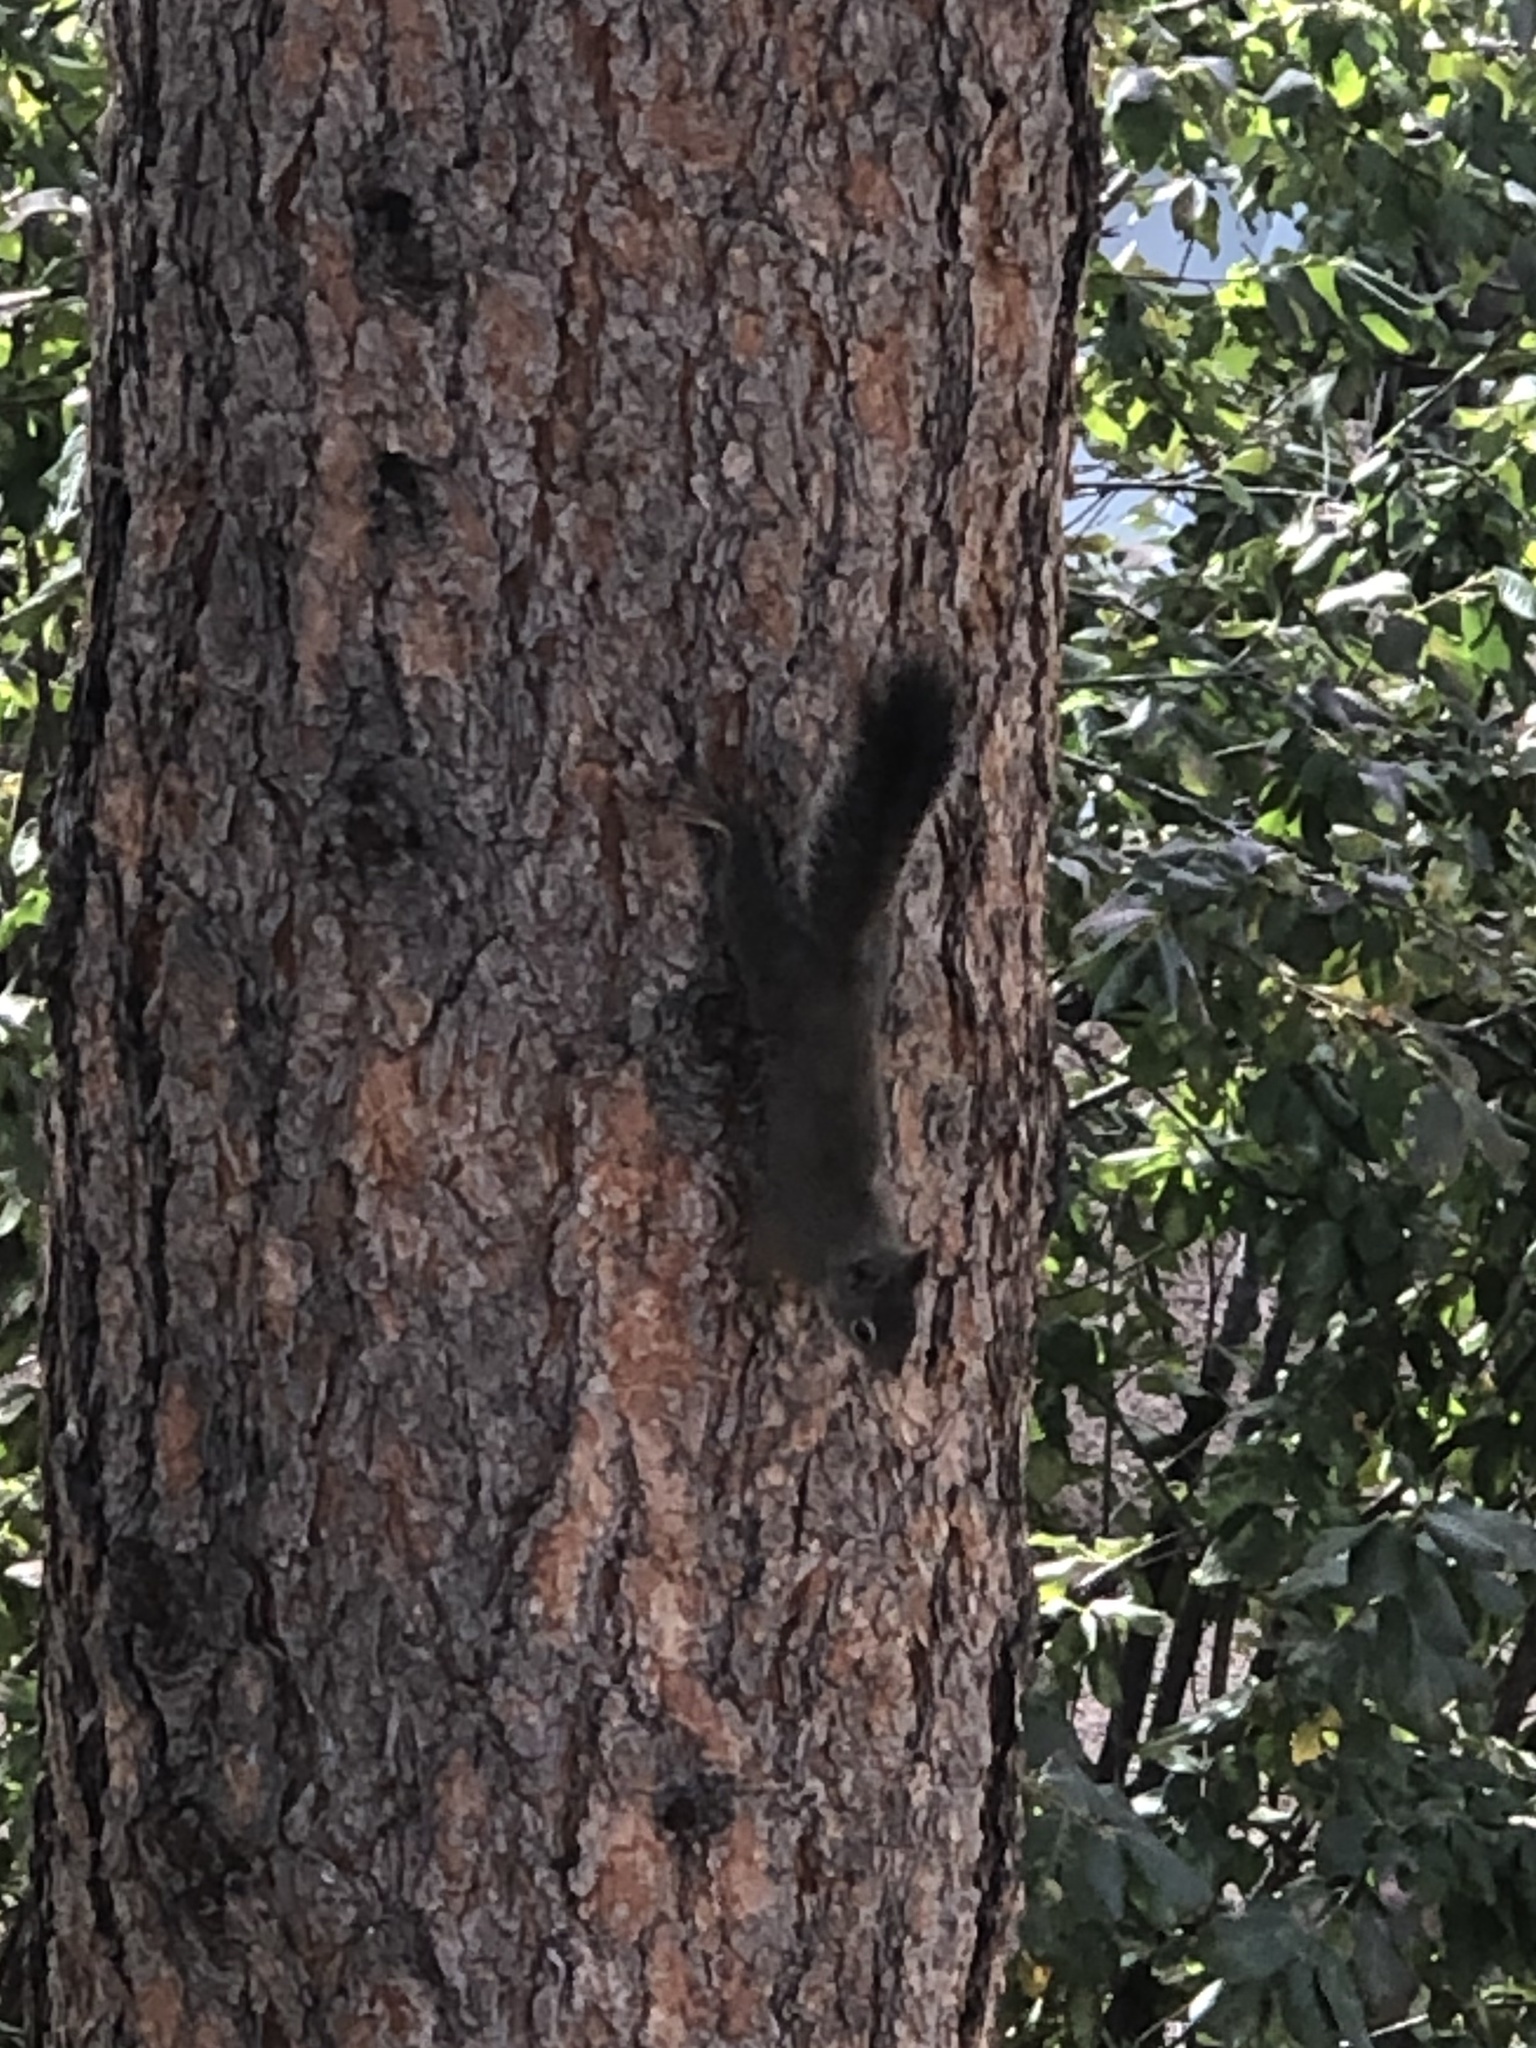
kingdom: Animalia
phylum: Chordata
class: Mammalia
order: Rodentia
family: Sciuridae
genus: Tamiasciurus
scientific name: Tamiasciurus hudsonicus
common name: Red squirrel
